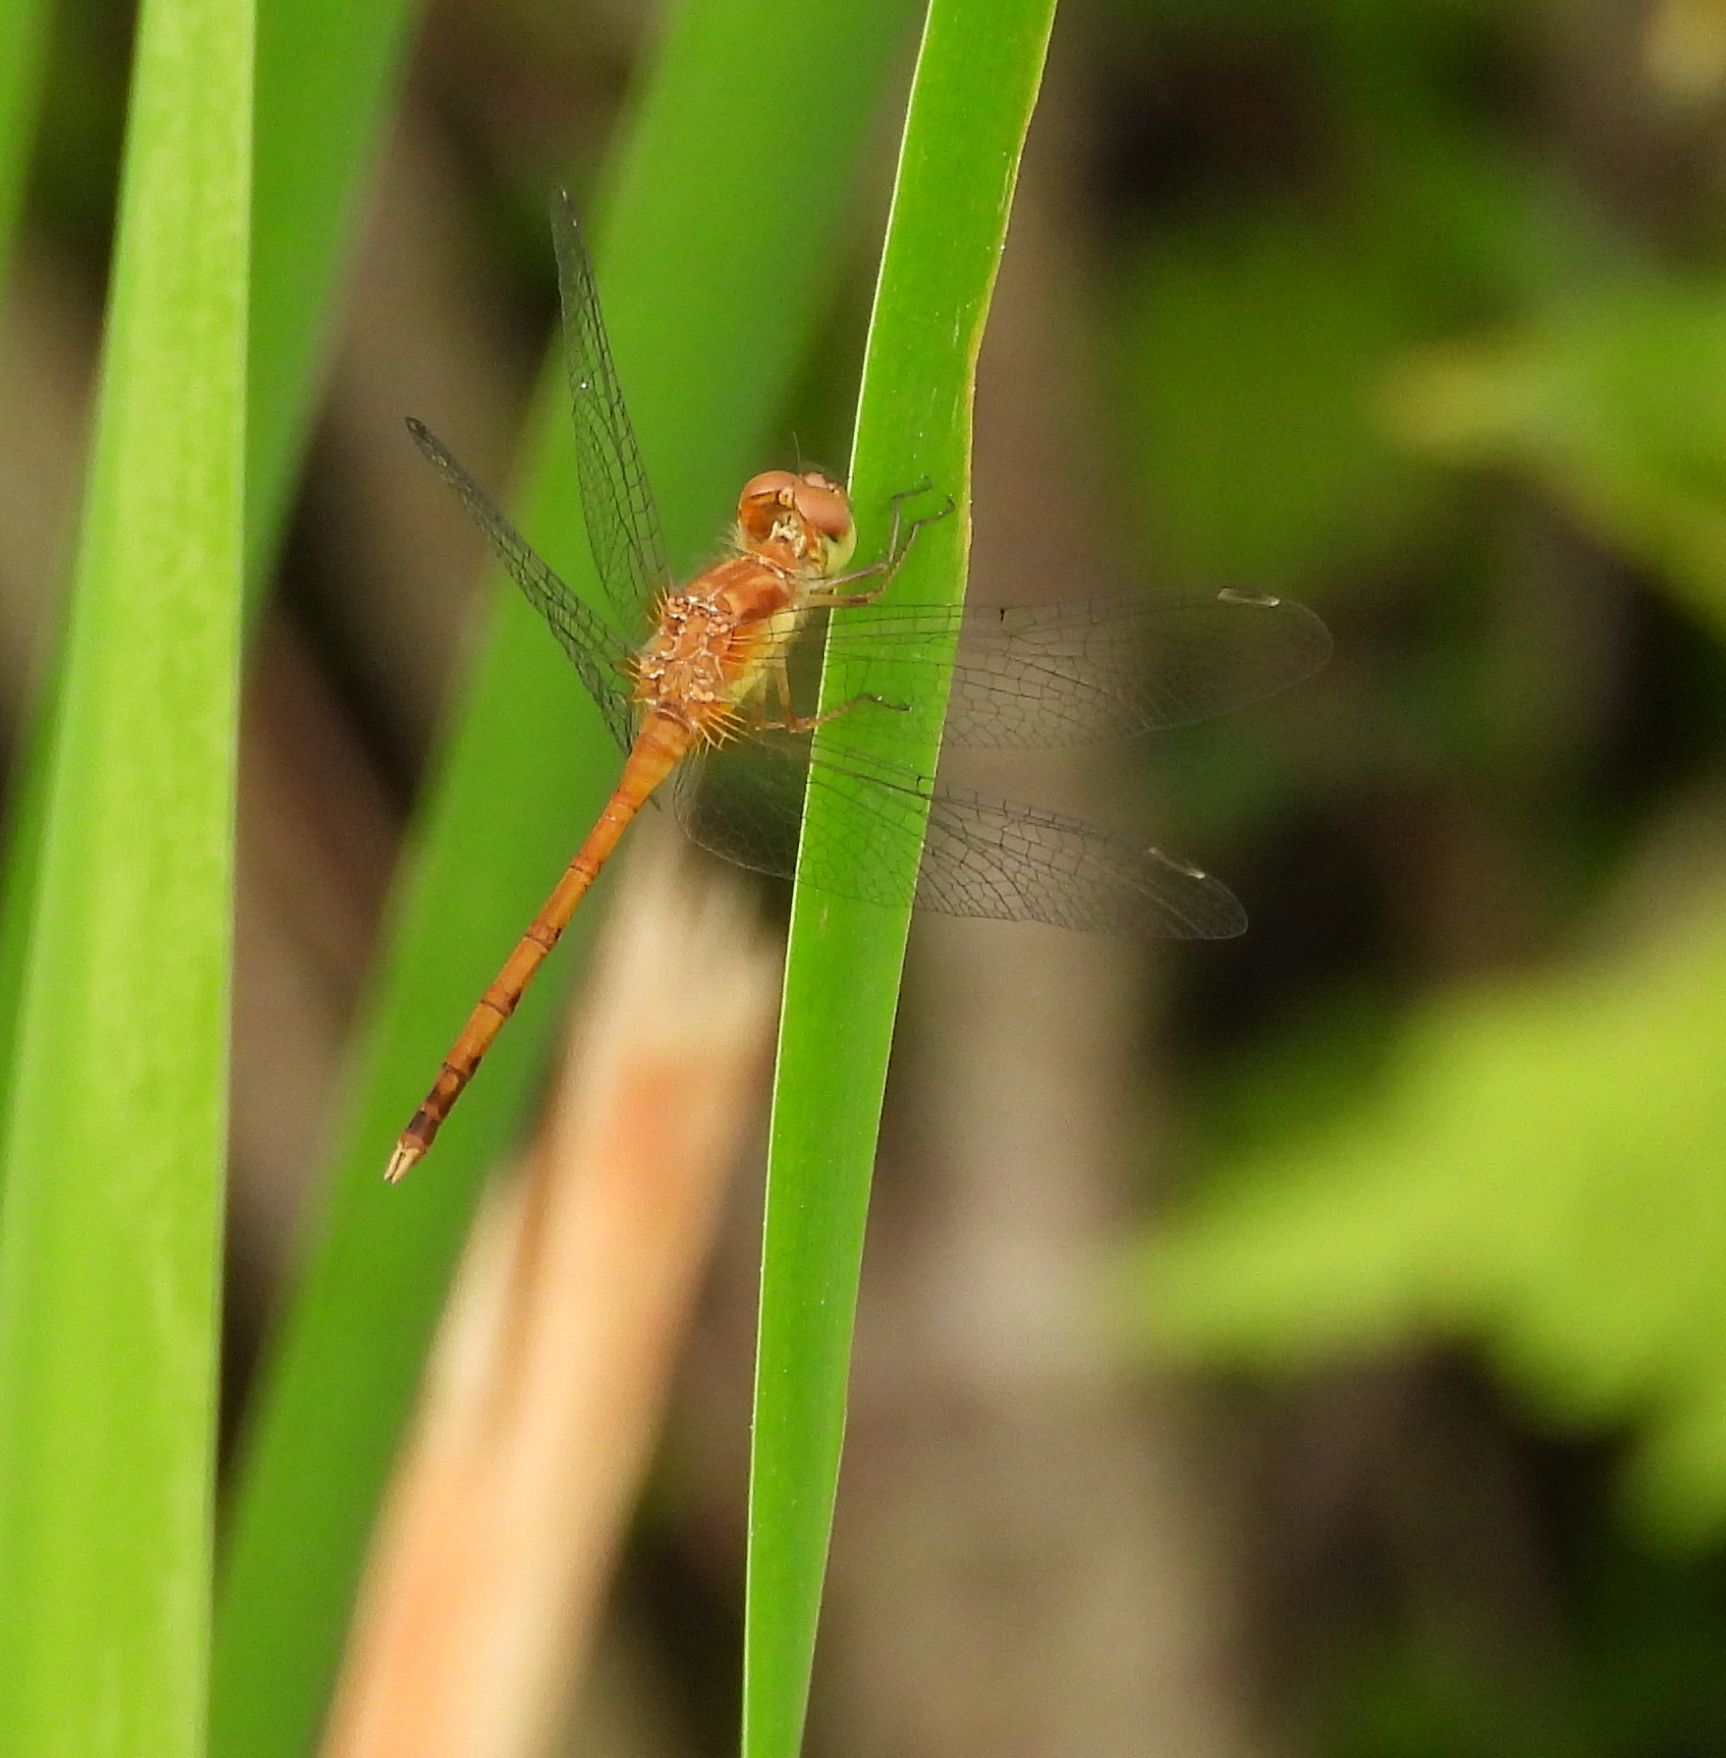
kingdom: Animalia
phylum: Arthropoda
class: Insecta
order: Odonata
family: Libellulidae
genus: Sympetrum
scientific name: Sympetrum vicinum
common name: Autumn meadowhawk
